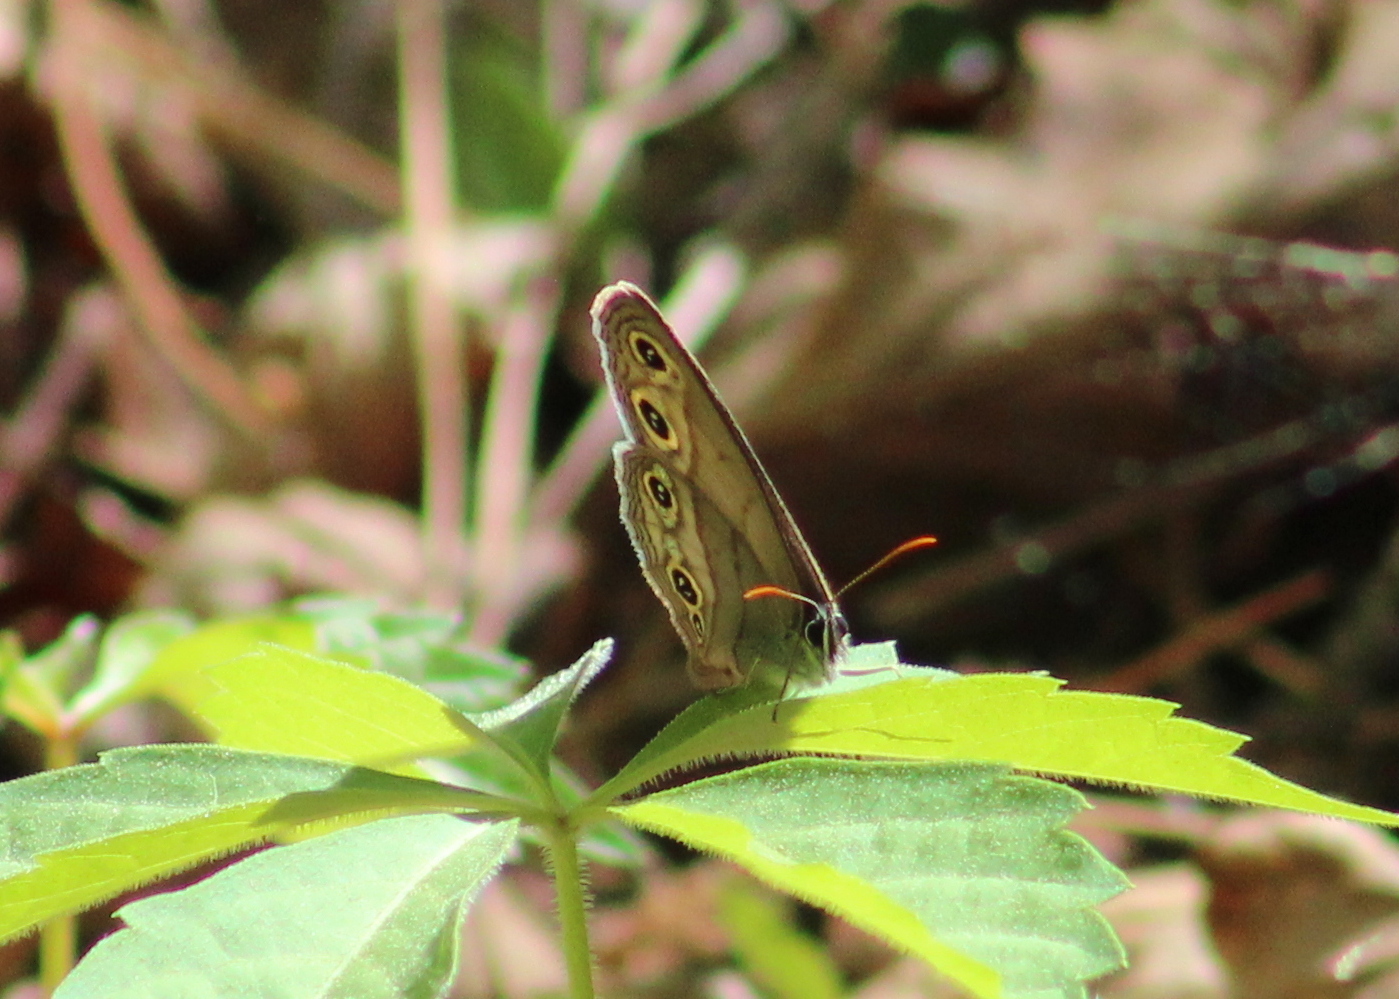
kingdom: Animalia
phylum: Arthropoda
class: Insecta
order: Lepidoptera
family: Nymphalidae
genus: Euptychia
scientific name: Euptychia cymela
